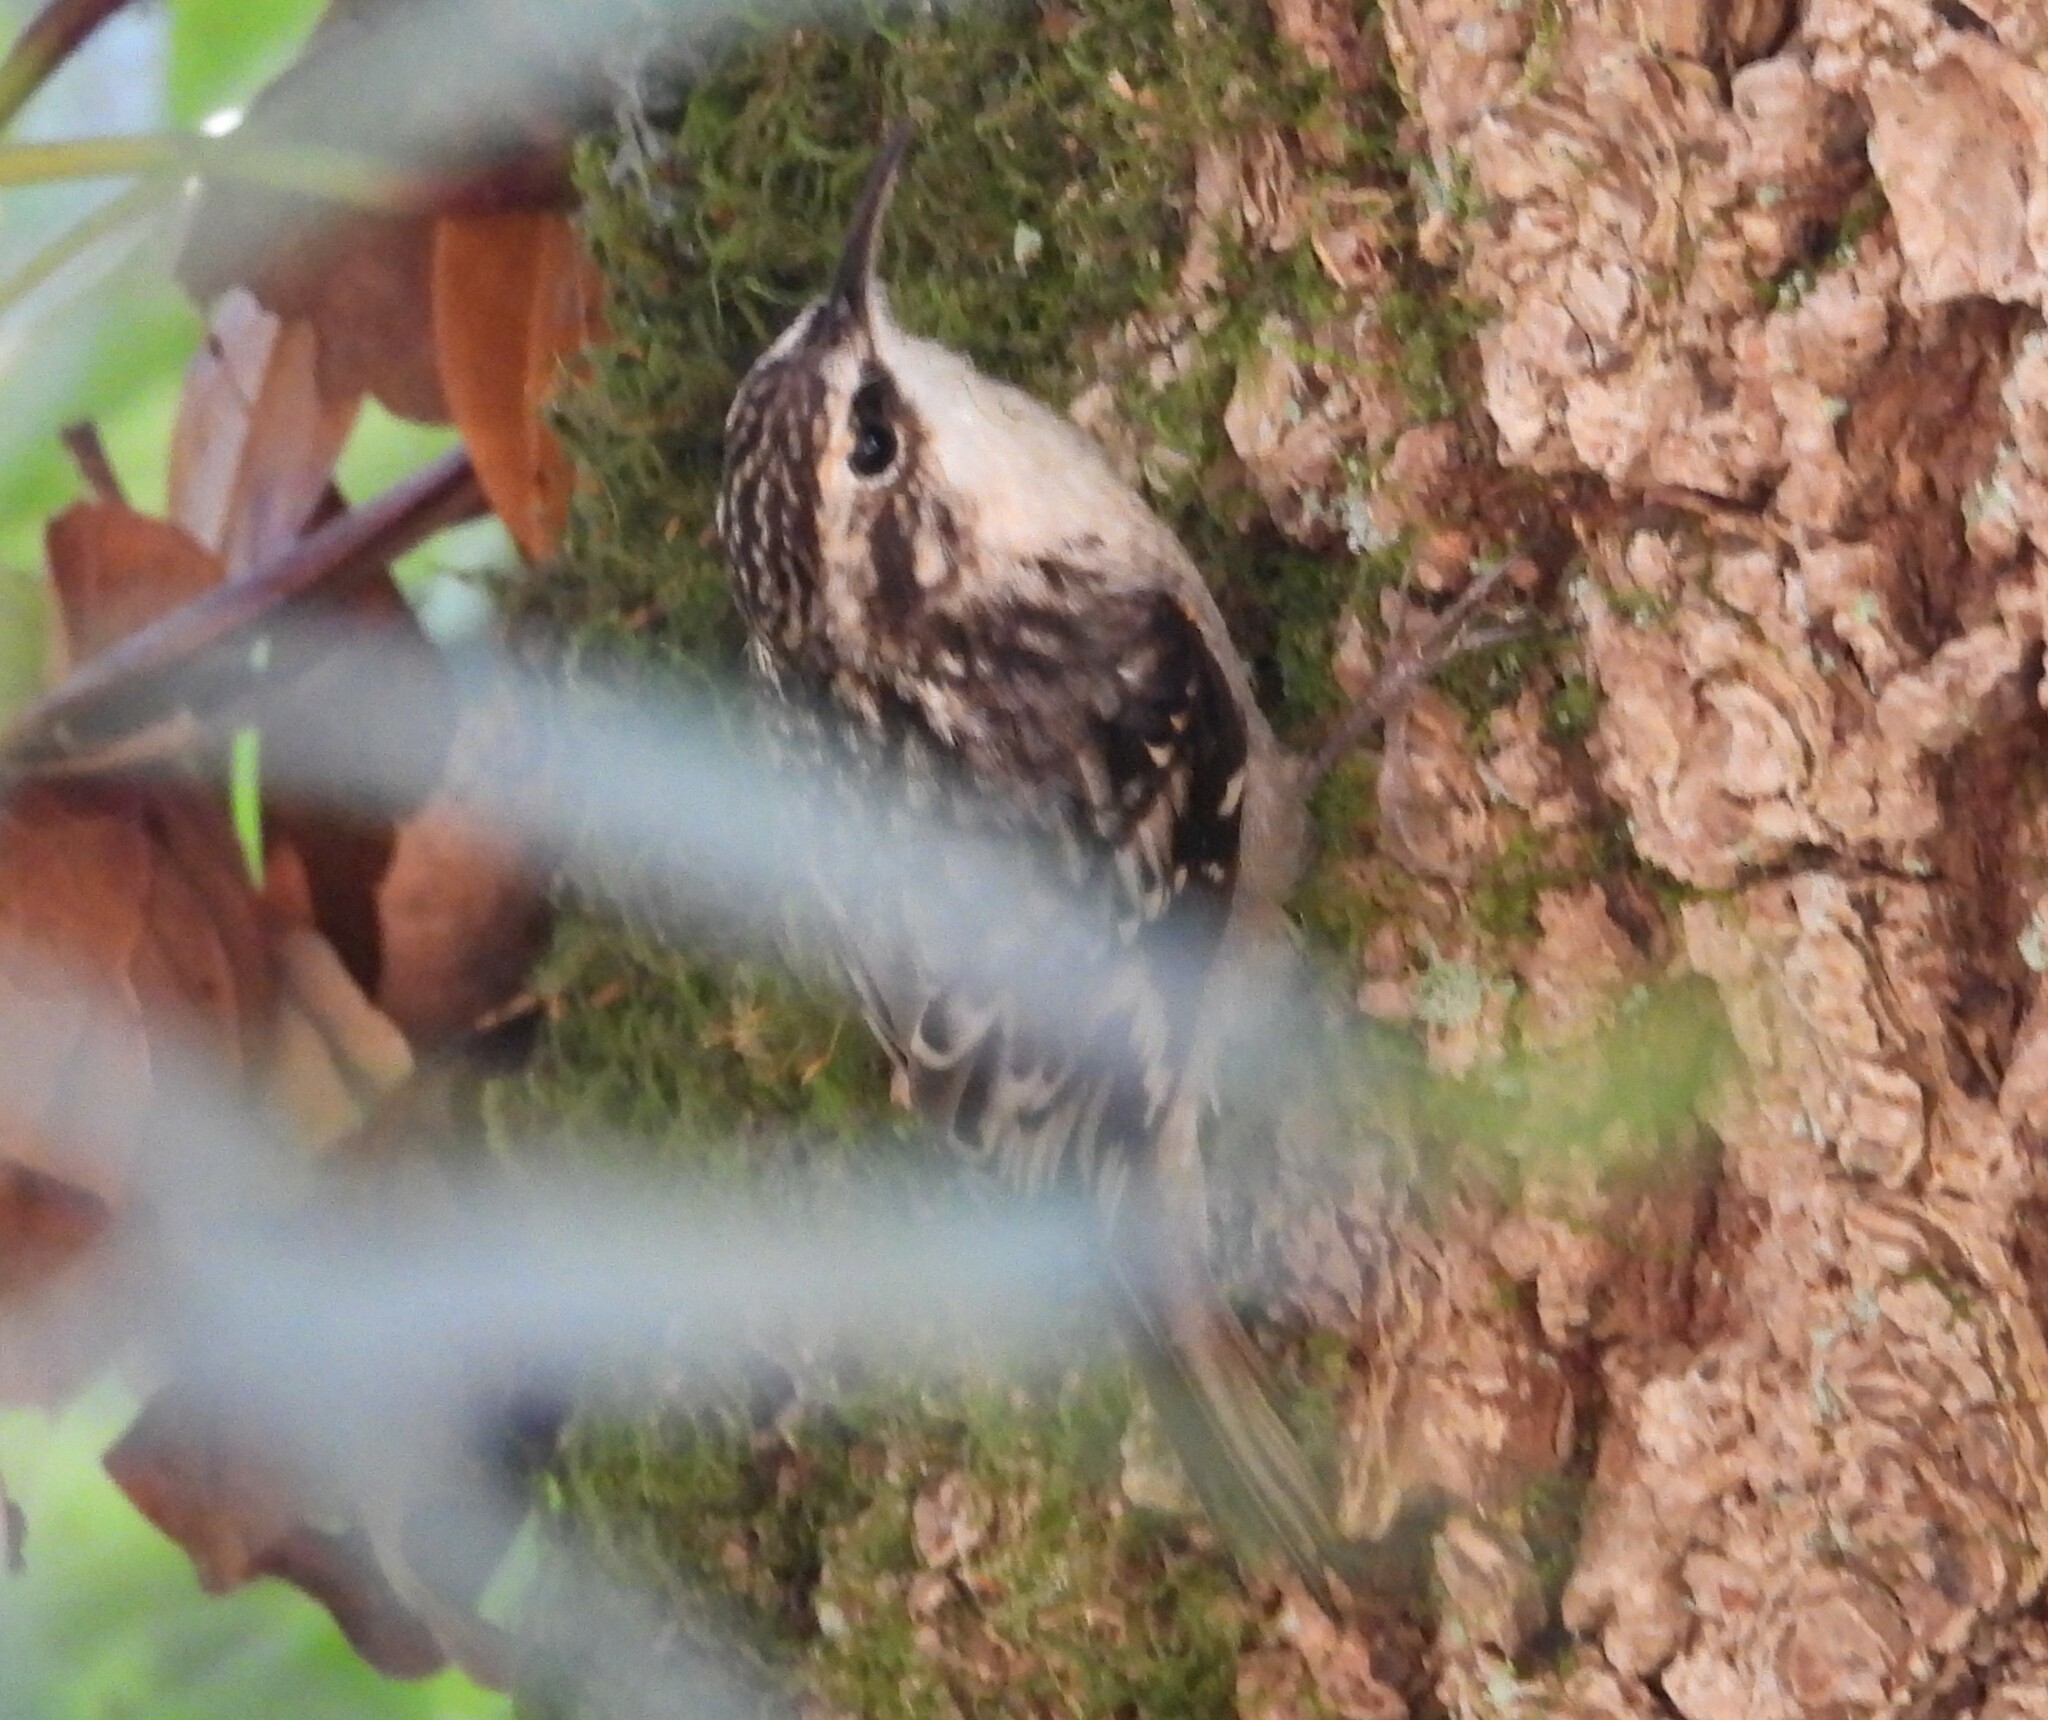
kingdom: Animalia
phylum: Chordata
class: Aves
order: Passeriformes
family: Certhiidae
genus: Certhia
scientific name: Certhia americana
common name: Brown creeper
